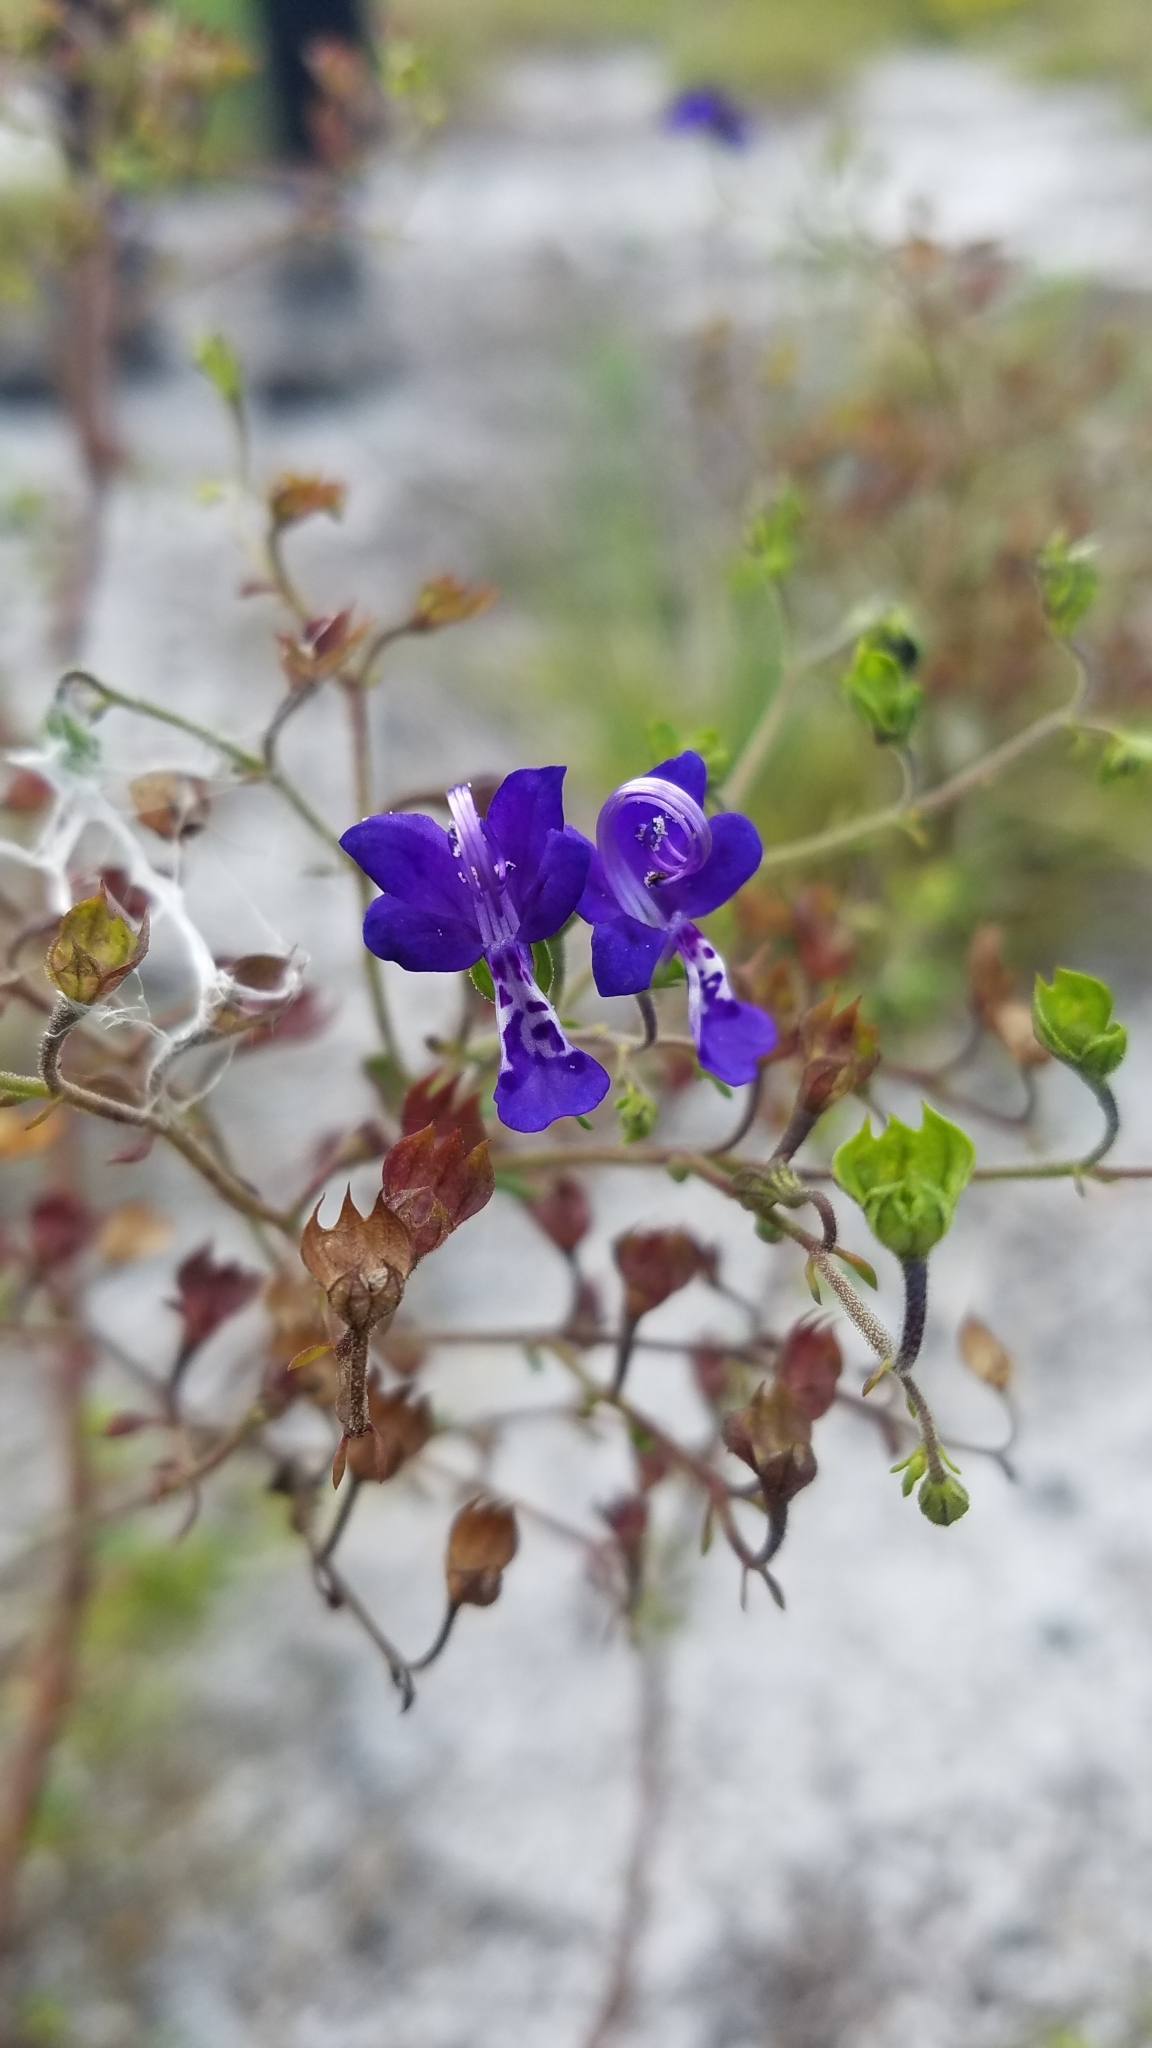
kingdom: Plantae
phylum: Tracheophyta
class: Magnoliopsida
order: Lamiales
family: Lamiaceae
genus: Trichostema
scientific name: Trichostema bridgesii-orzellii
